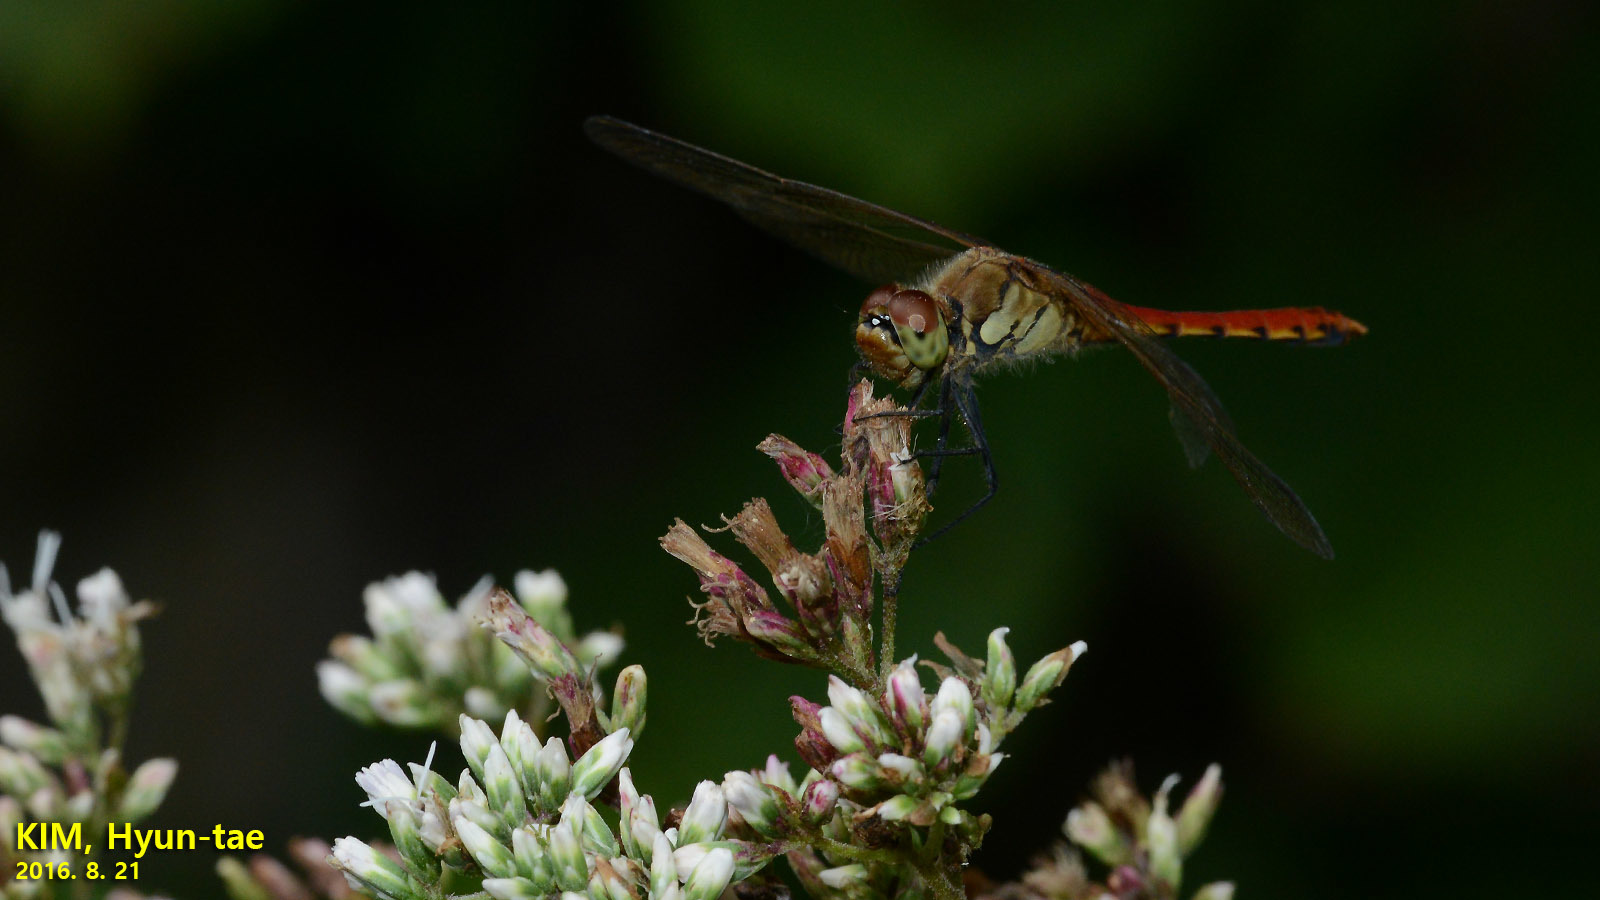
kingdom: Animalia
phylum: Arthropoda
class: Insecta
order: Odonata
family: Libellulidae
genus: Sympetrum
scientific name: Sympetrum depressiusculum
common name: Spotted darter
